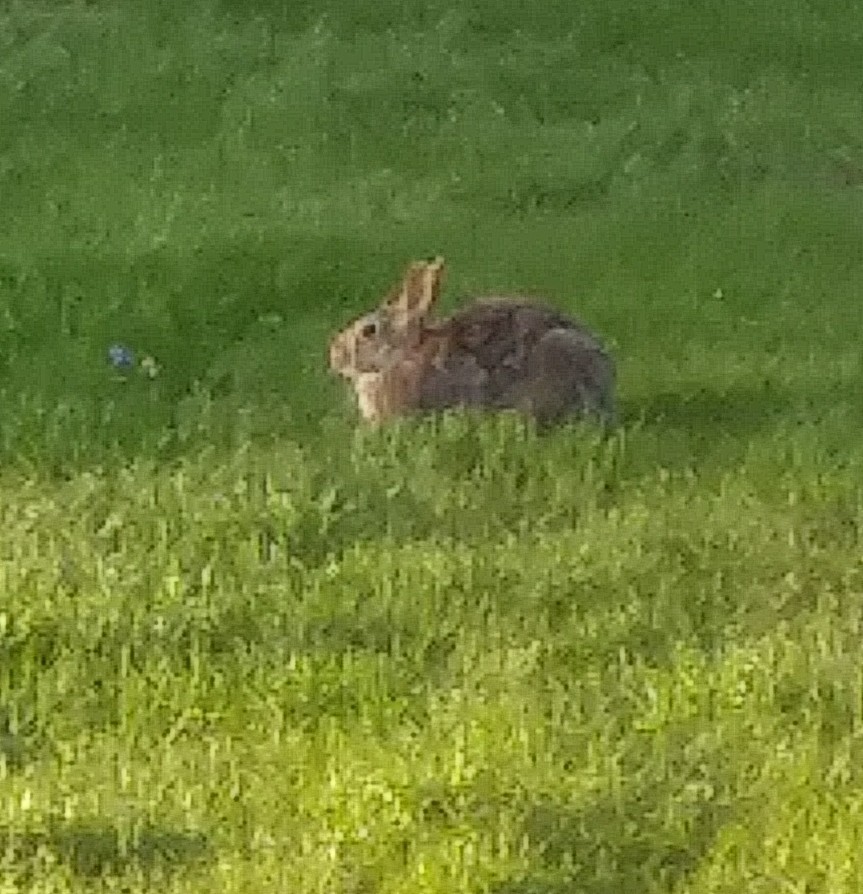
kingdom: Animalia
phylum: Chordata
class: Mammalia
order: Lagomorpha
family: Leporidae
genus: Sylvilagus
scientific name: Sylvilagus floridanus
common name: Eastern cottontail
